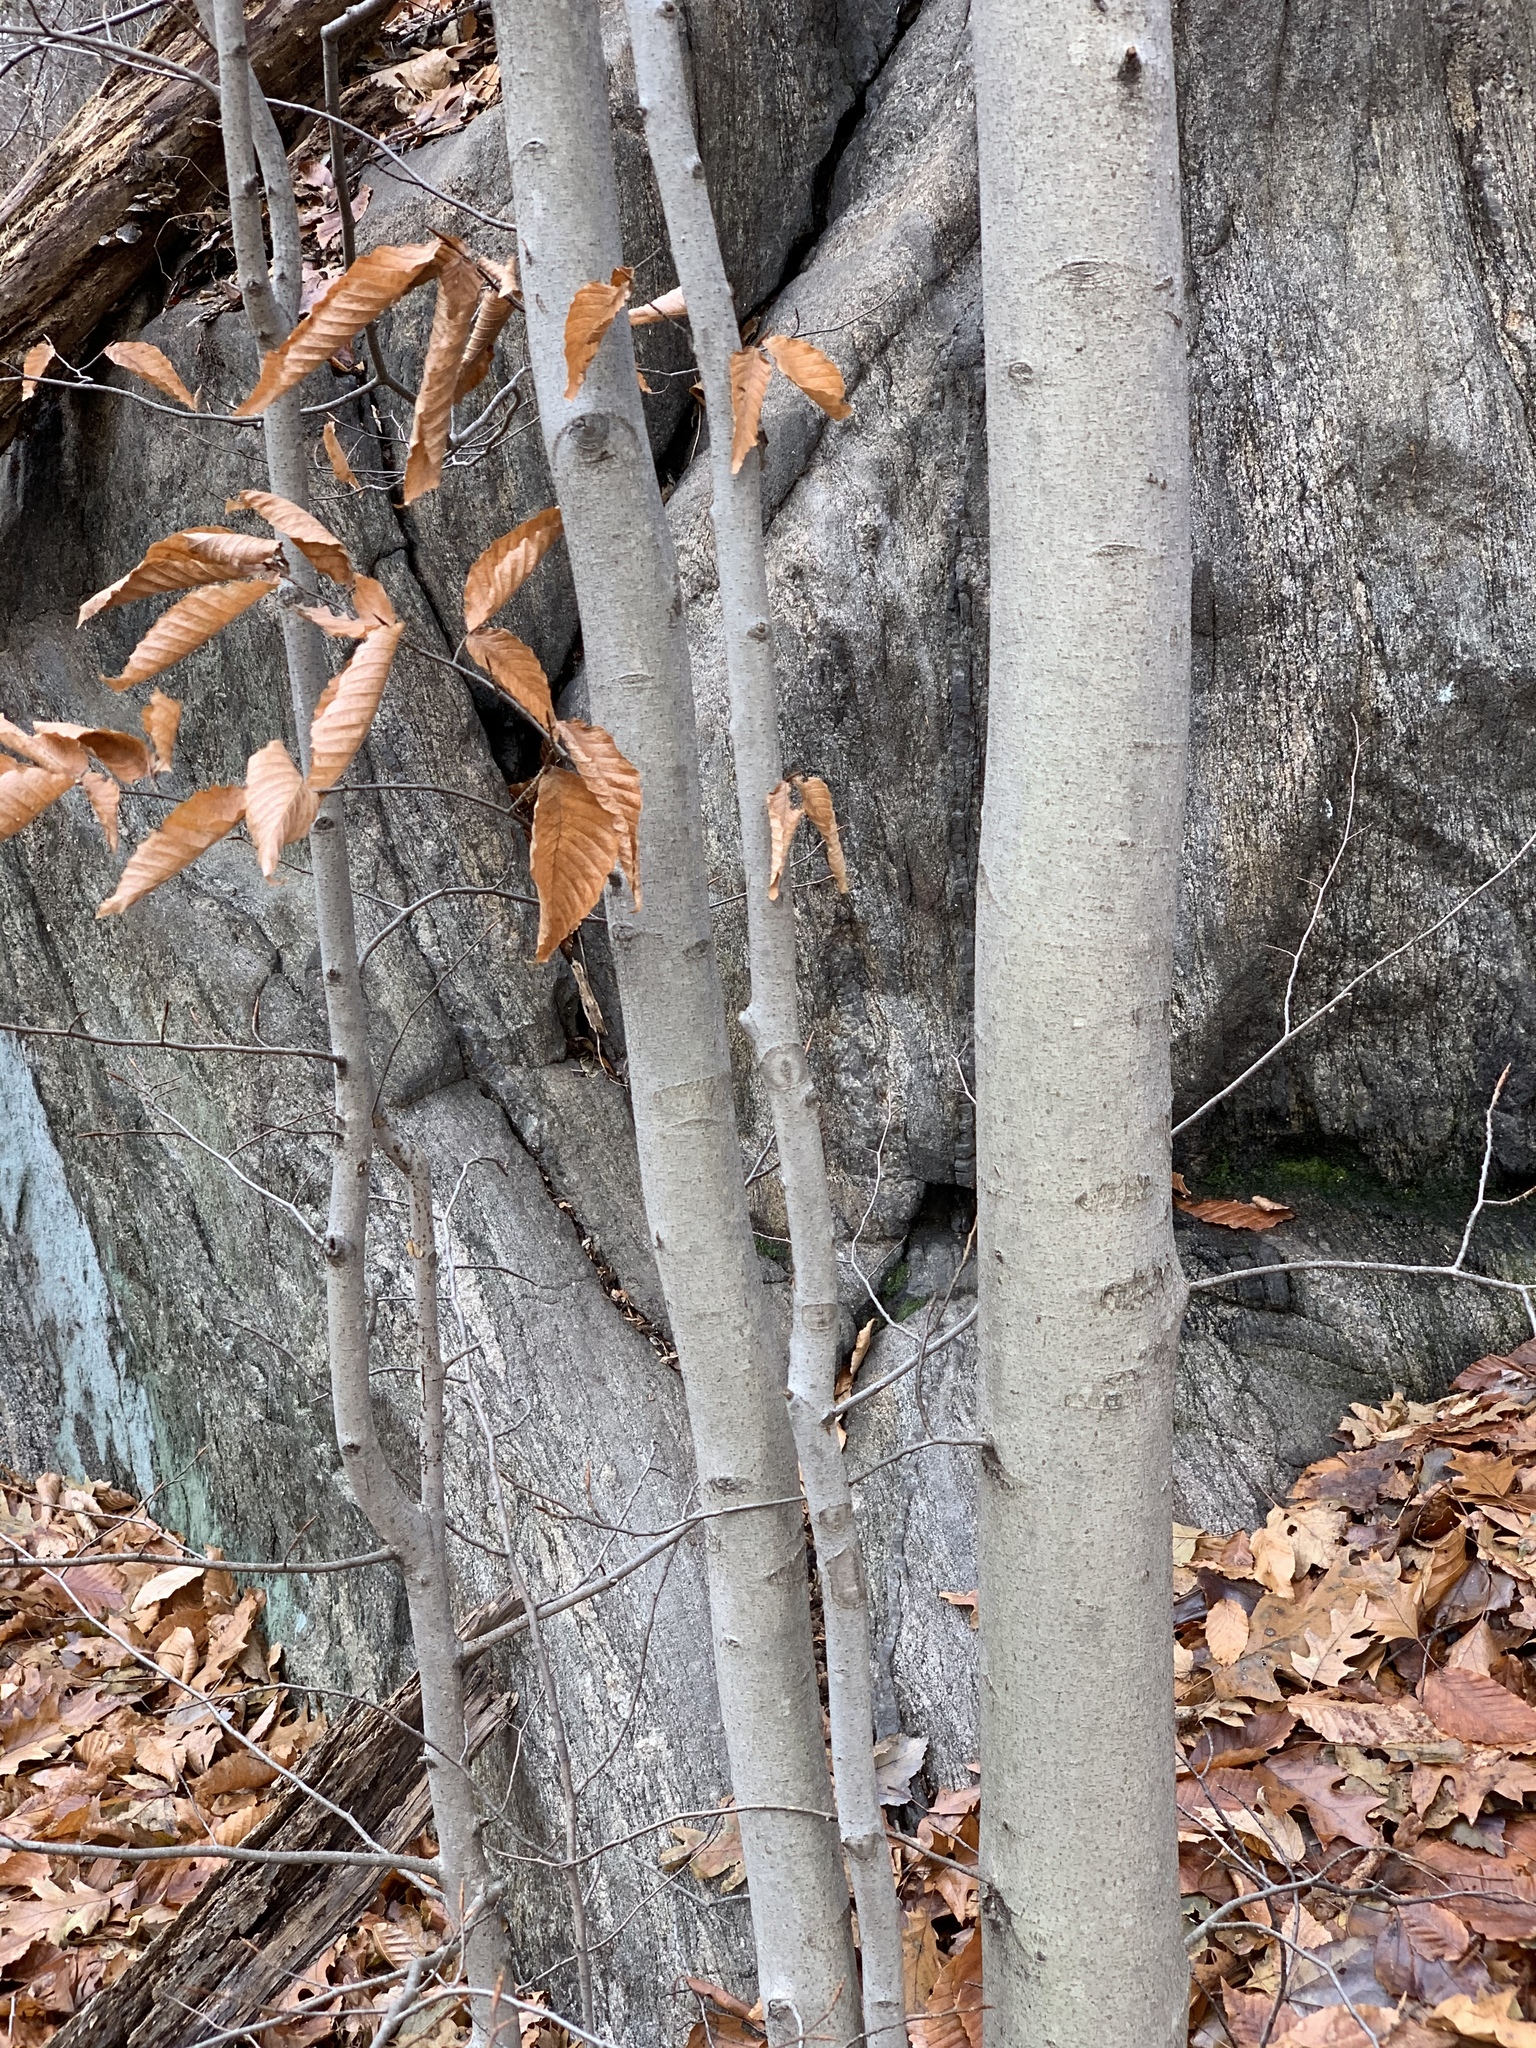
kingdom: Plantae
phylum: Tracheophyta
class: Magnoliopsida
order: Fagales
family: Fagaceae
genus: Fagus
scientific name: Fagus grandifolia
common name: American beech
